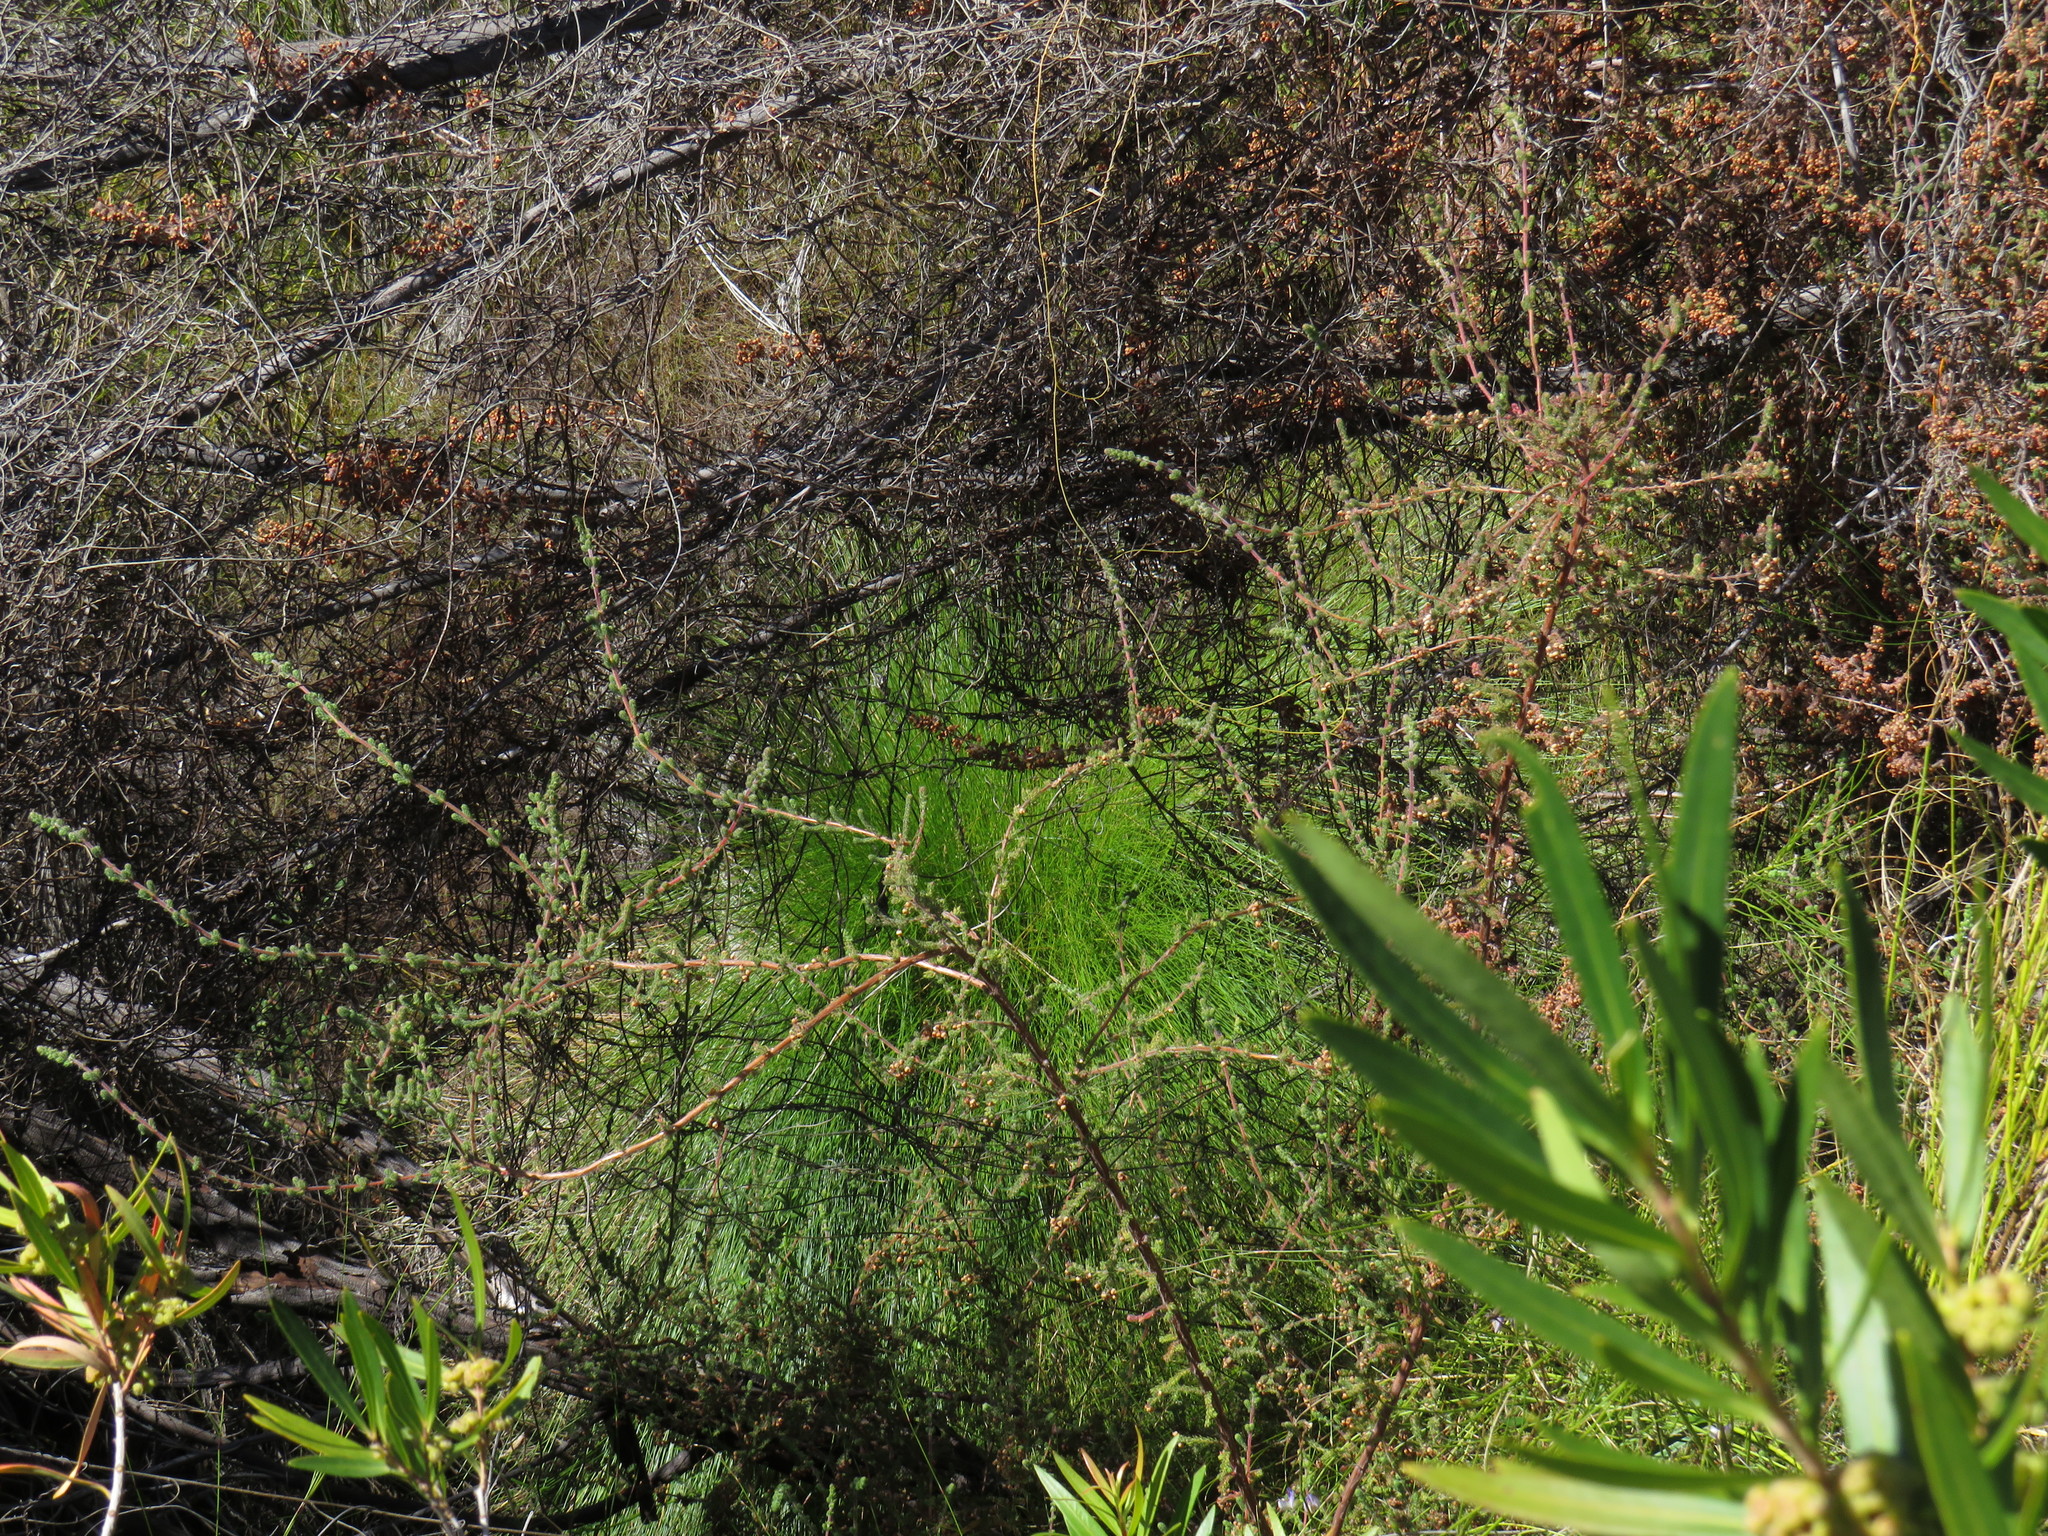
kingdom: Plantae
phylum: Tracheophyta
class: Magnoliopsida
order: Ericales
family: Ericaceae
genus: Erica
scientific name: Erica bergiana
